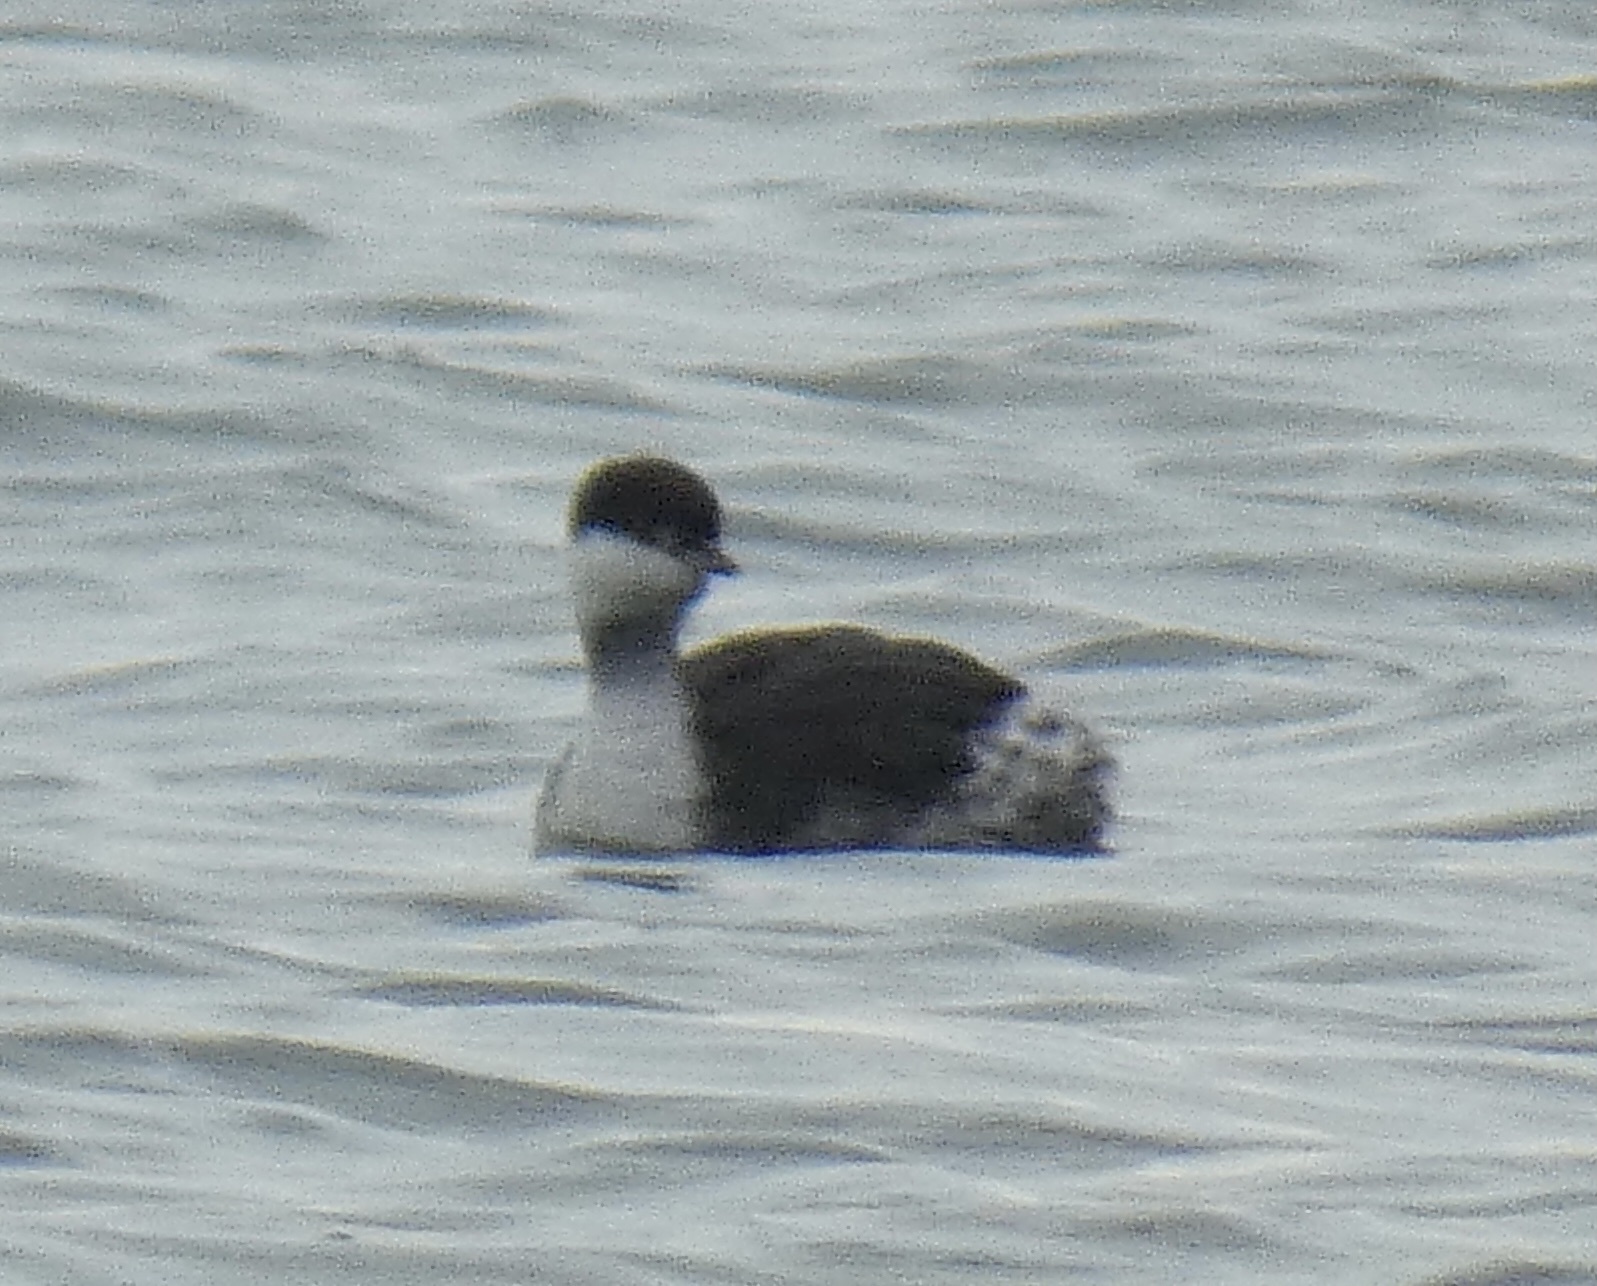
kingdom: Animalia
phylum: Chordata
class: Aves
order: Podicipediformes
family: Podicipedidae
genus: Podiceps
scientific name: Podiceps auritus
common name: Horned grebe
